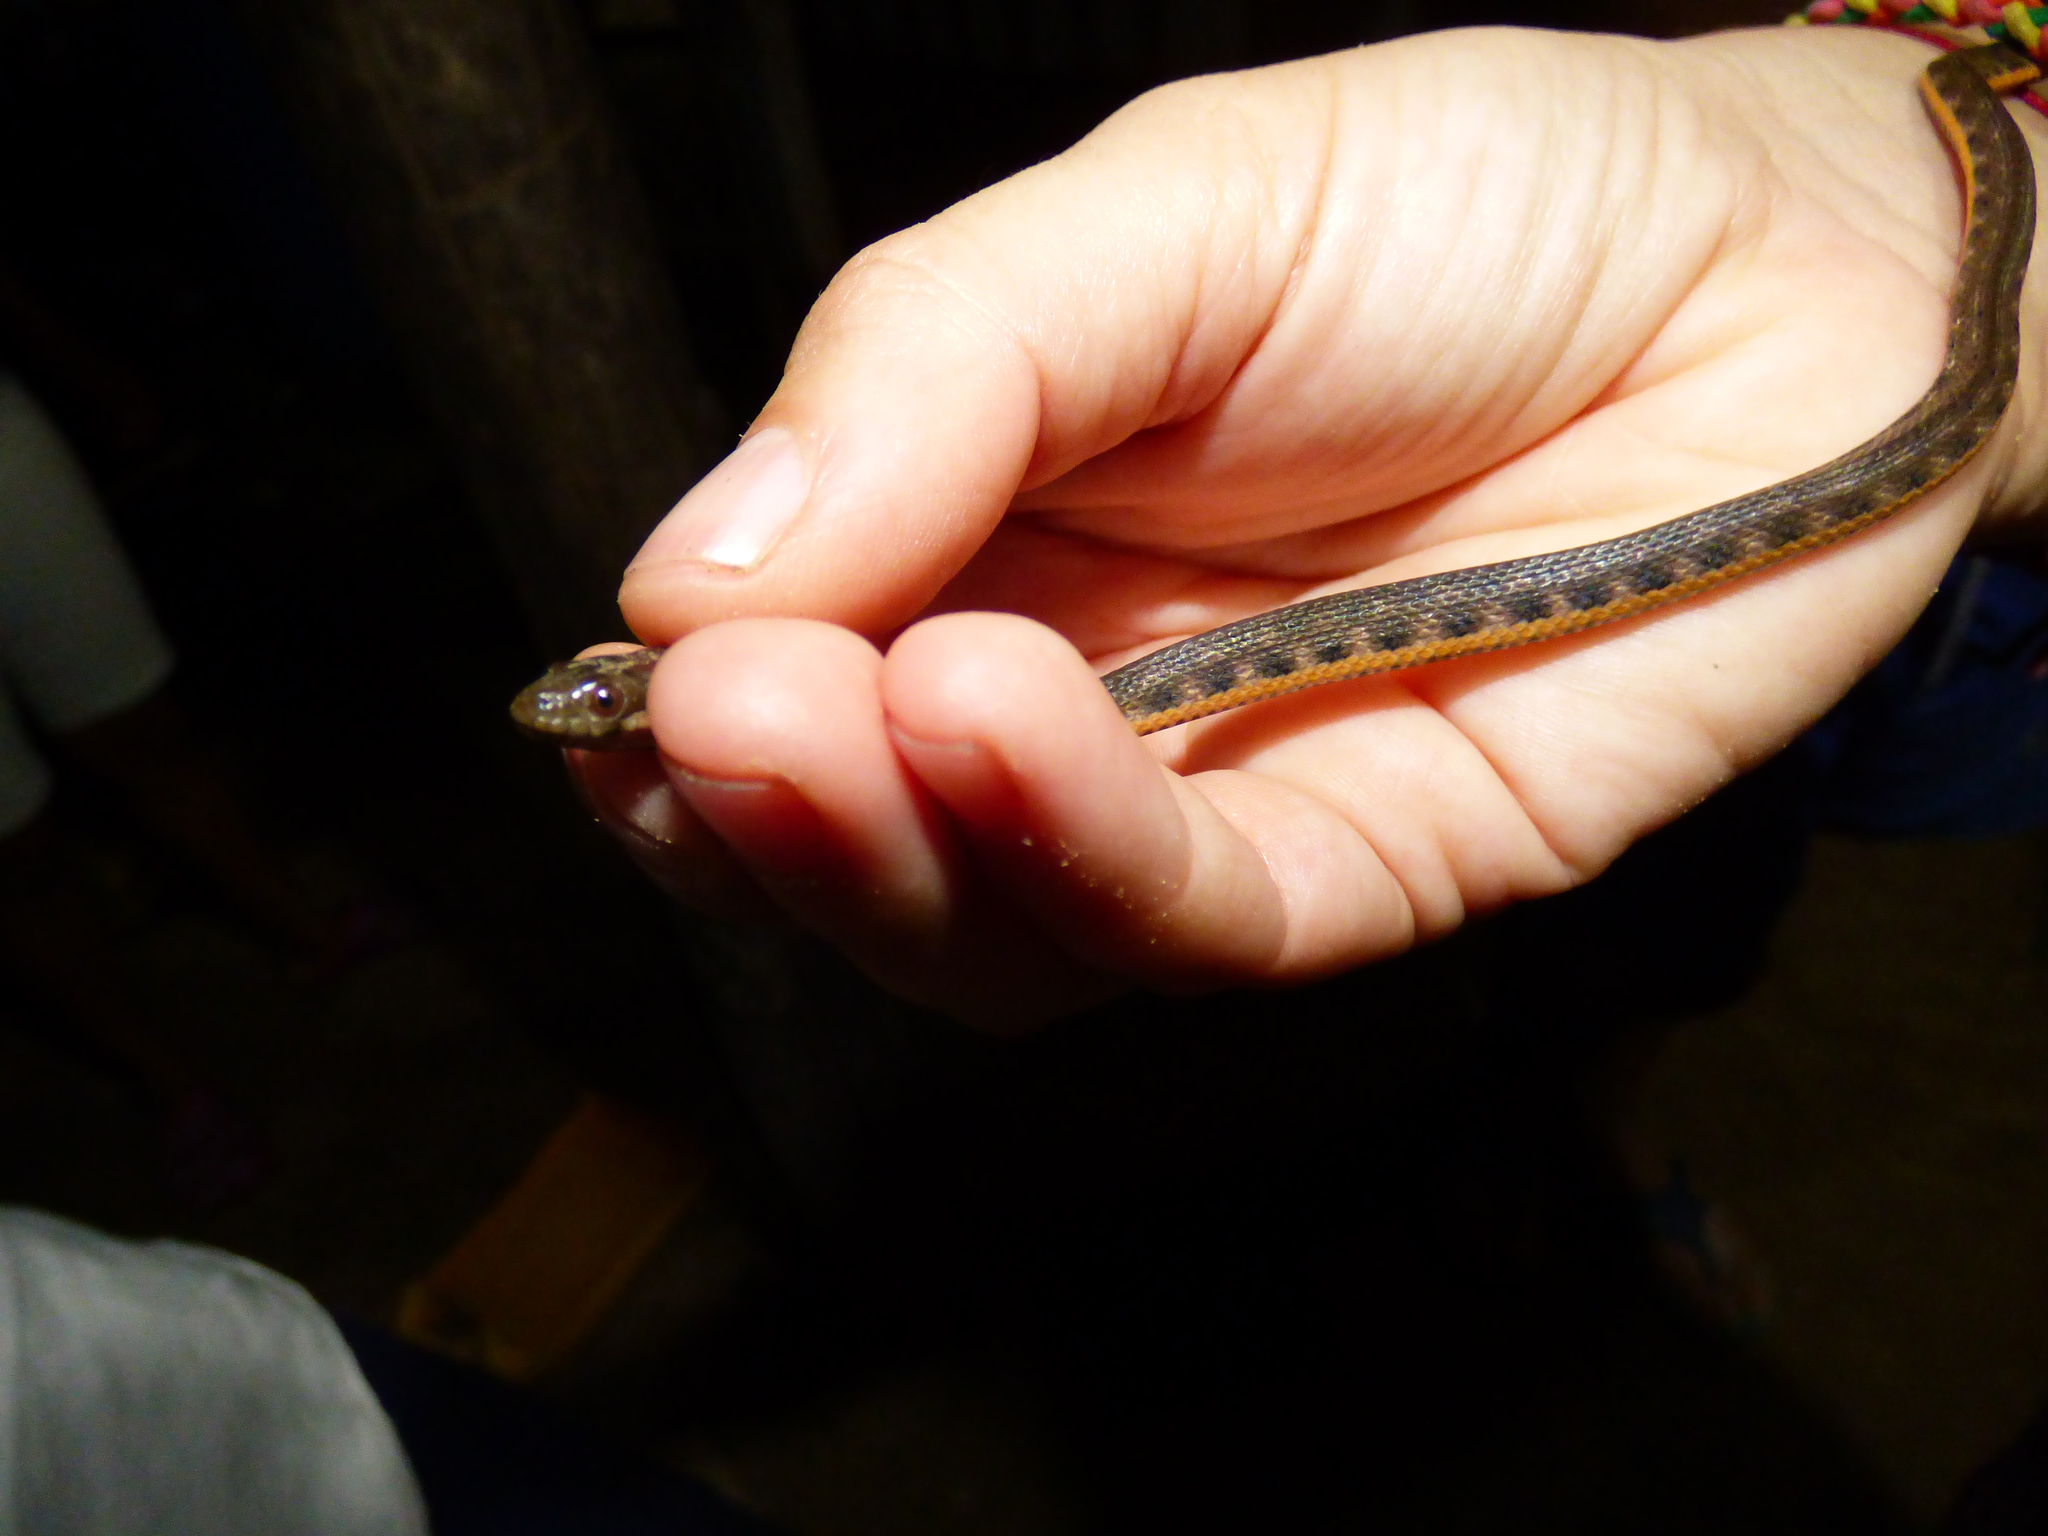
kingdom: Animalia
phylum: Chordata
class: Squamata
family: Colubridae
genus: Helicops
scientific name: Helicops danieli
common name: Daniel's keelback
